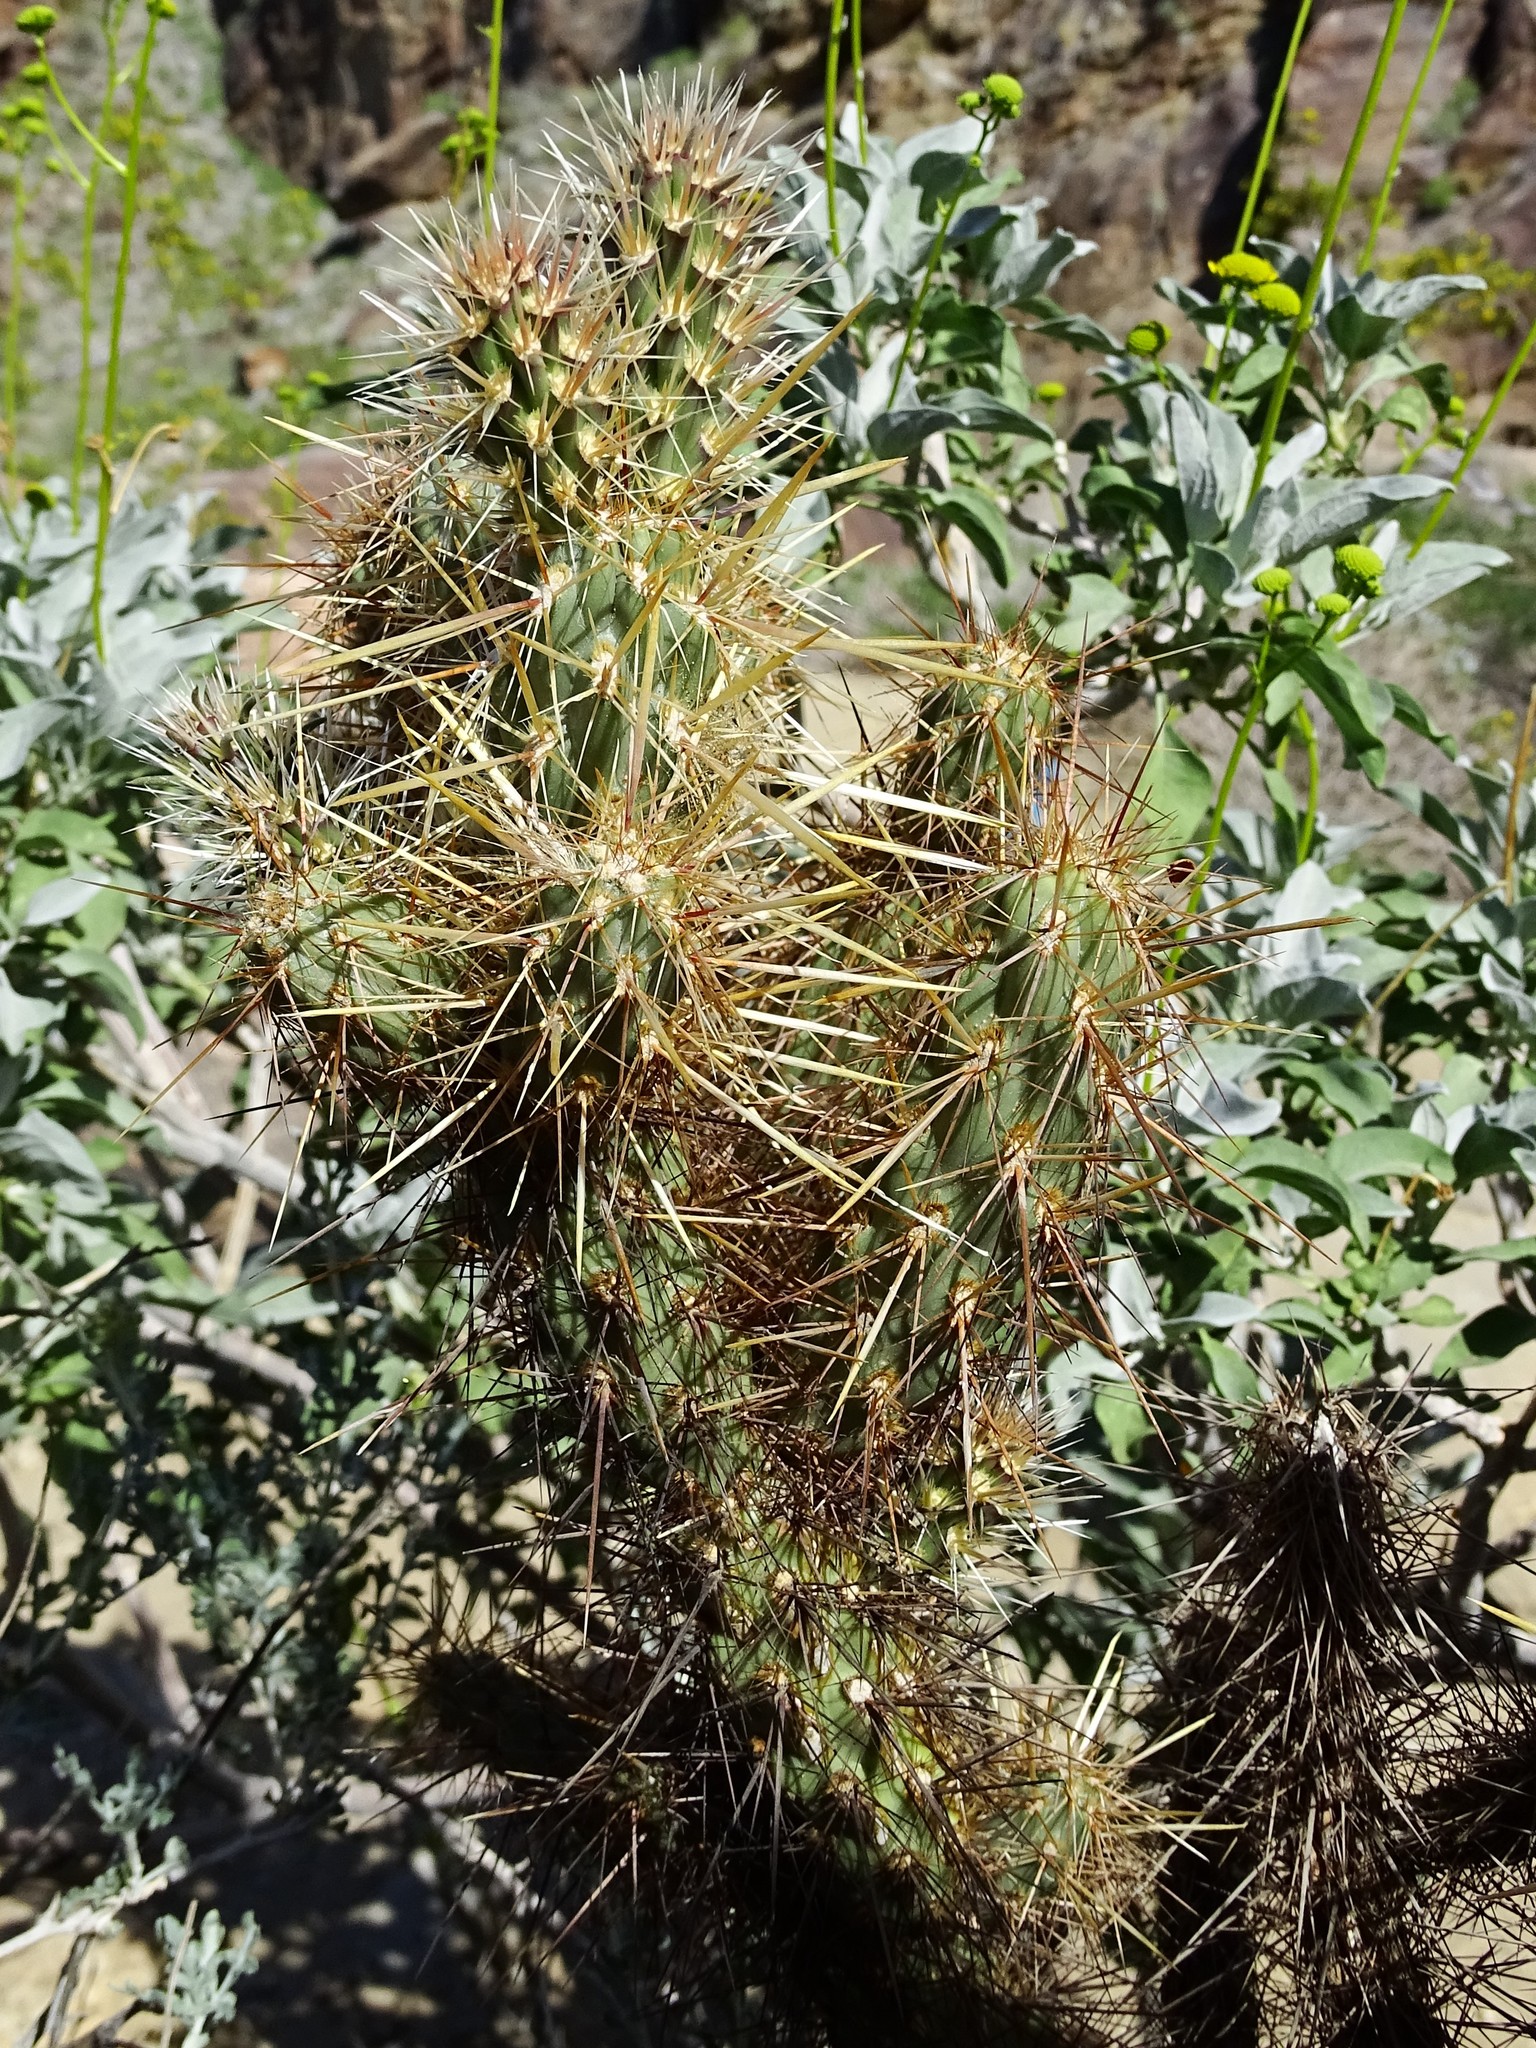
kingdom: Plantae
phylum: Tracheophyta
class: Magnoliopsida
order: Caryophyllales
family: Cactaceae
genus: Cylindropuntia
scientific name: Cylindropuntia echinocarpa
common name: Ground cholla
